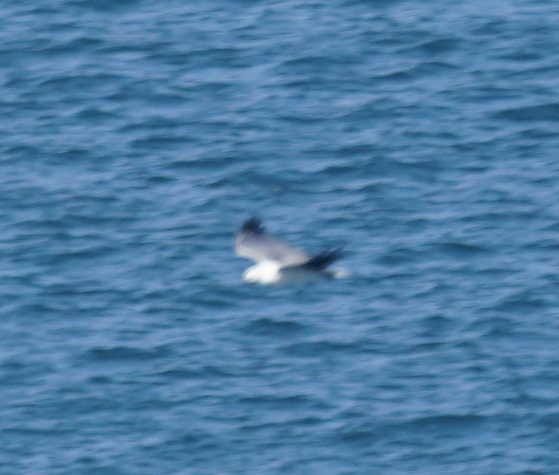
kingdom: Animalia
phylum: Chordata
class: Aves
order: Accipitriformes
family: Accipitridae
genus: Haliaeetus
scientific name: Haliaeetus leucogaster
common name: White-bellied sea eagle
